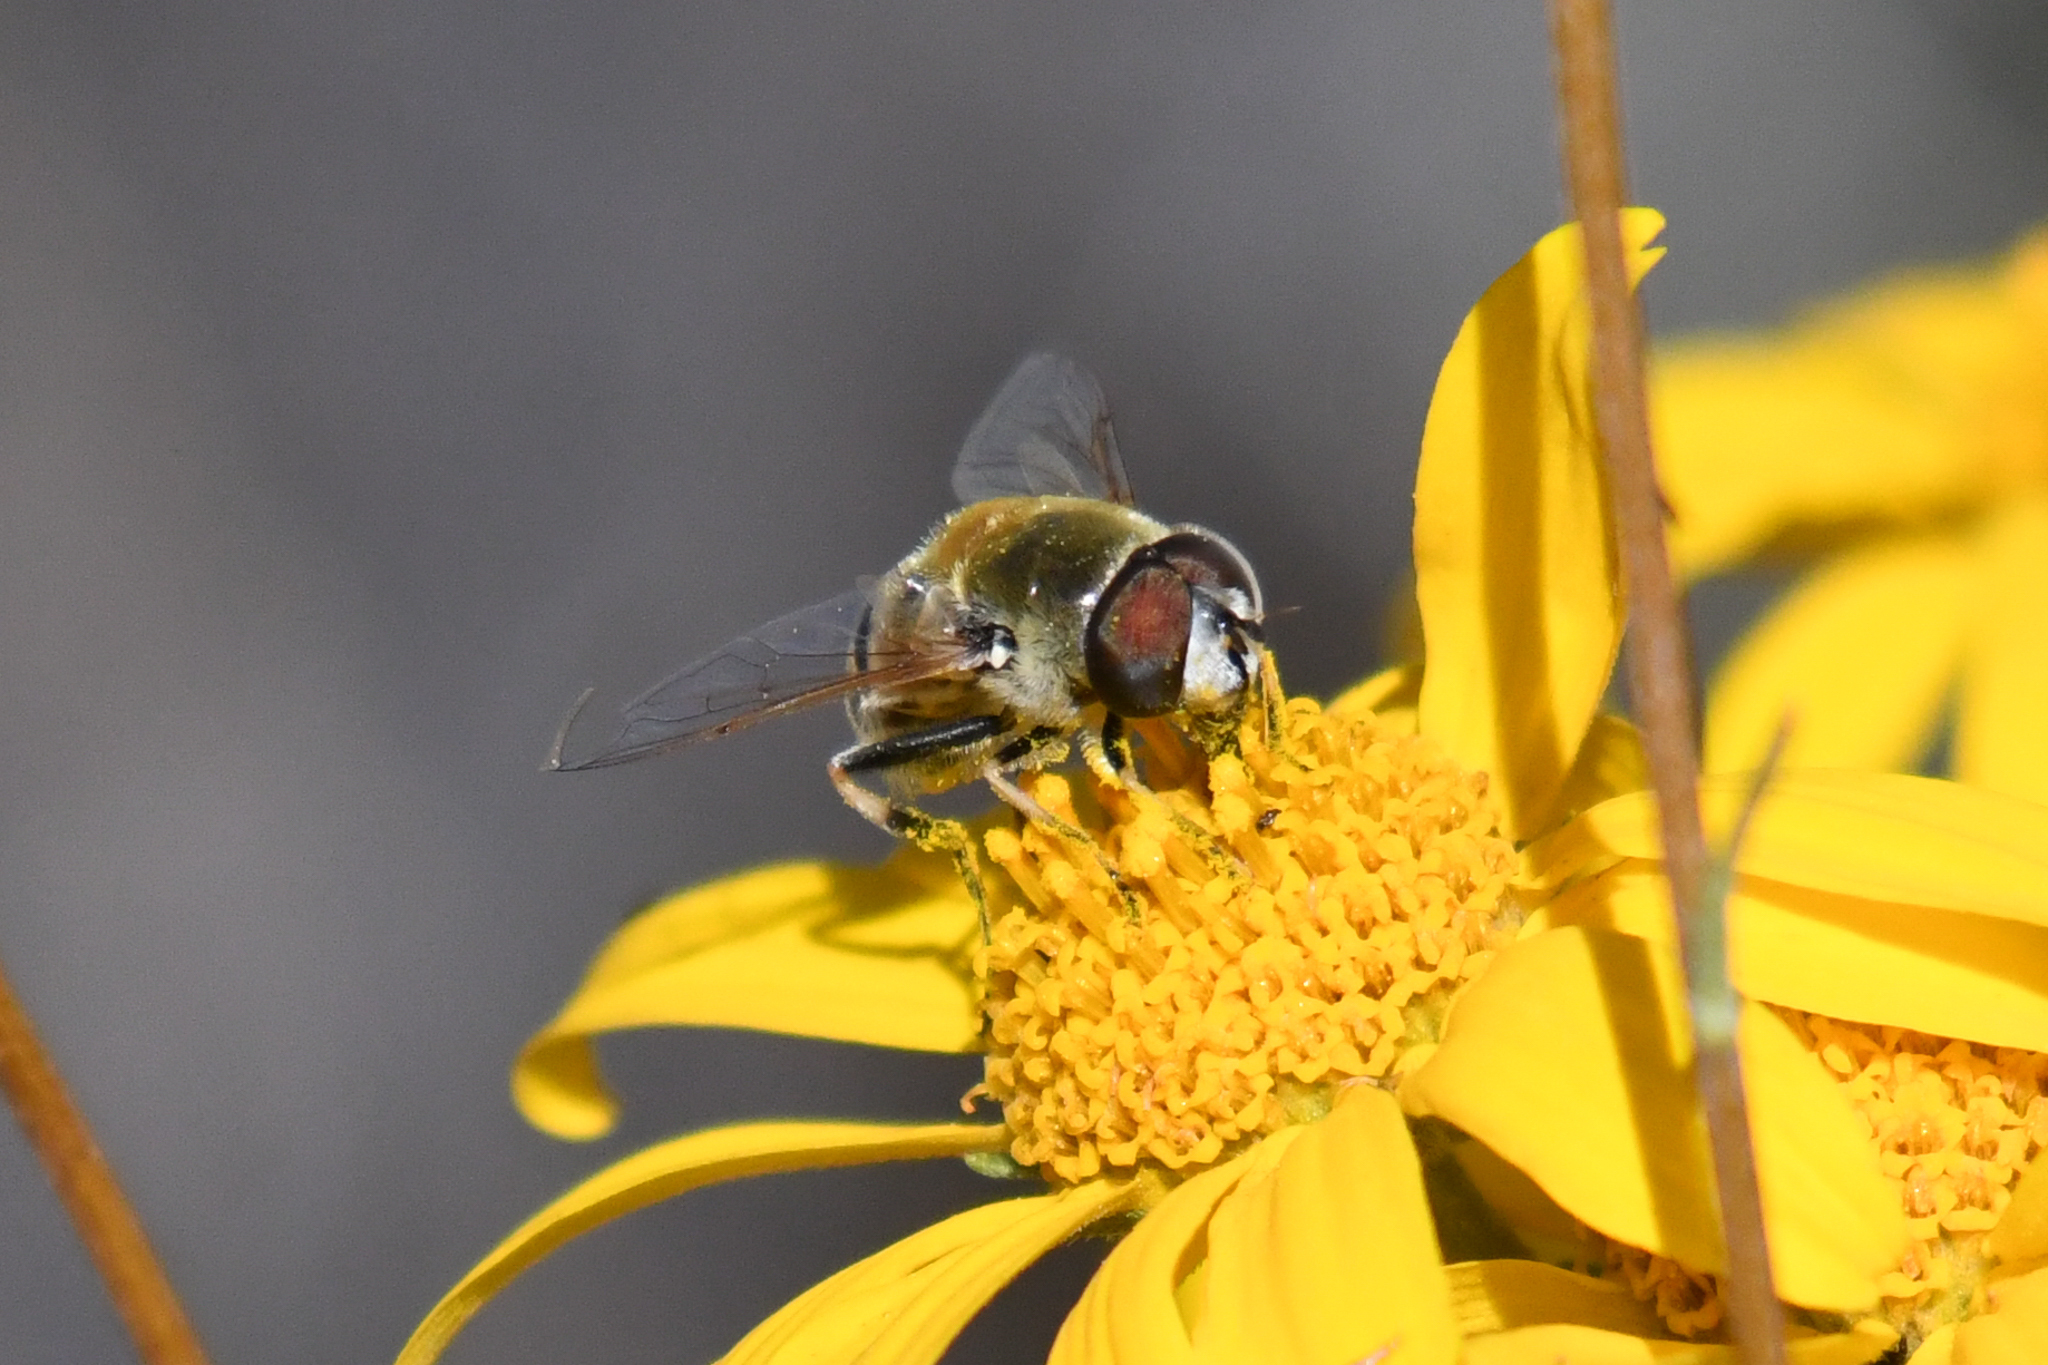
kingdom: Animalia
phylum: Arthropoda
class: Insecta
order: Diptera
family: Syrphidae
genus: Eristalis
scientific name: Eristalis stipator
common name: Yellow-shouldered drone fly
